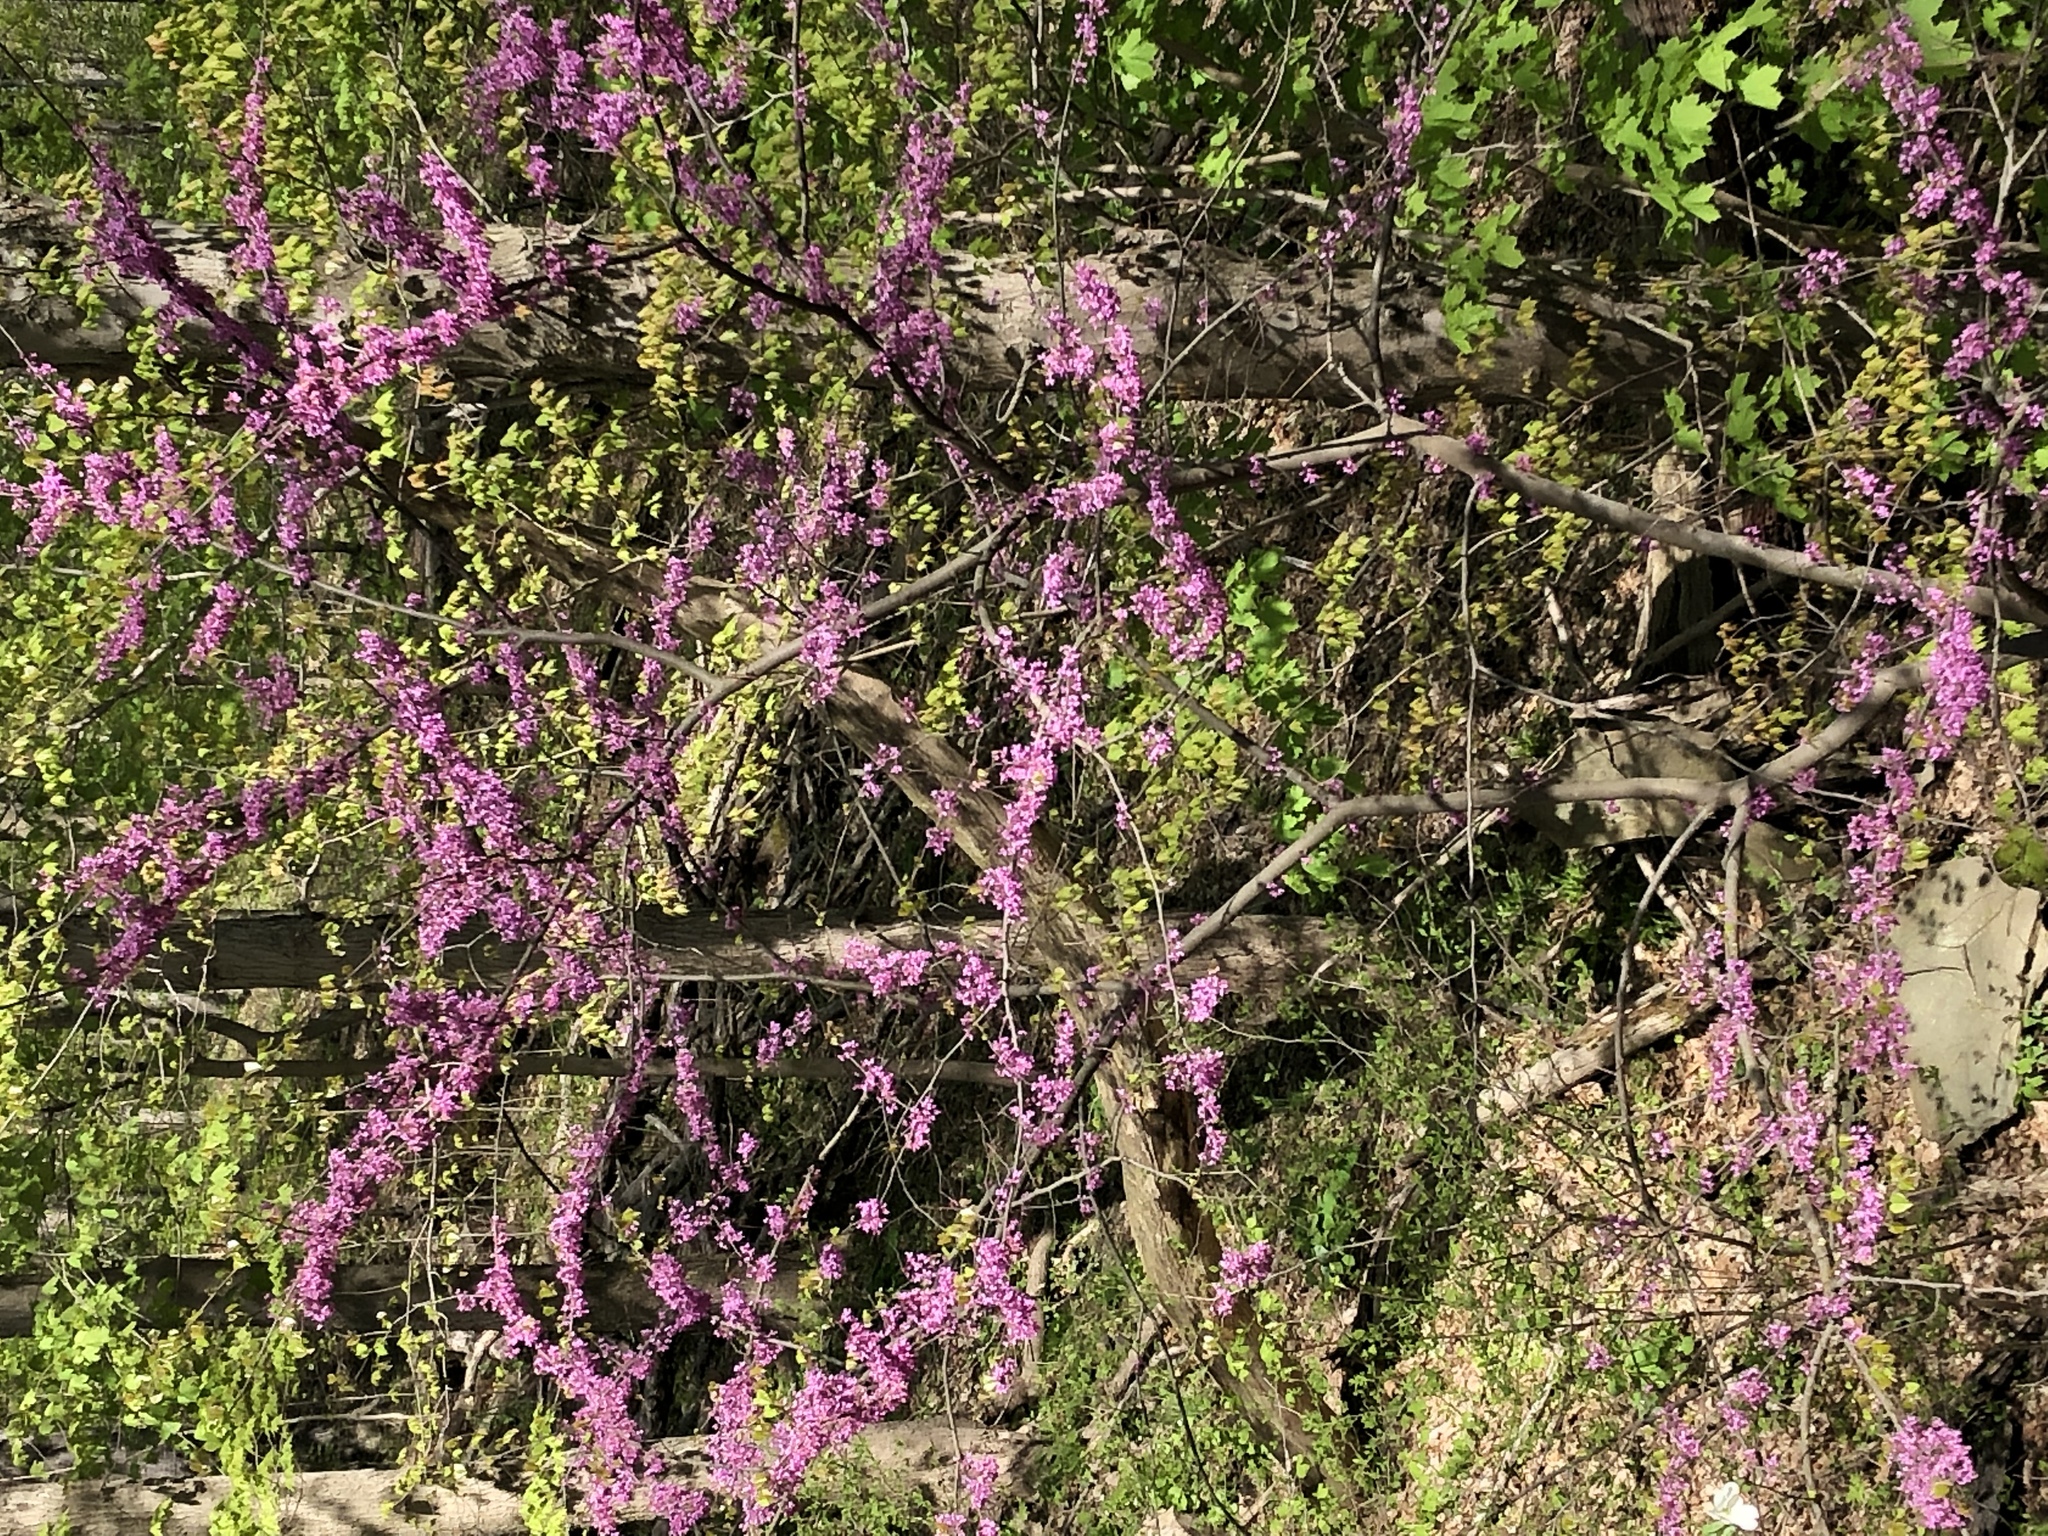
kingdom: Plantae
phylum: Tracheophyta
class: Magnoliopsida
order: Fabales
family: Fabaceae
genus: Cercis
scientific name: Cercis canadensis
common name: Eastern redbud
